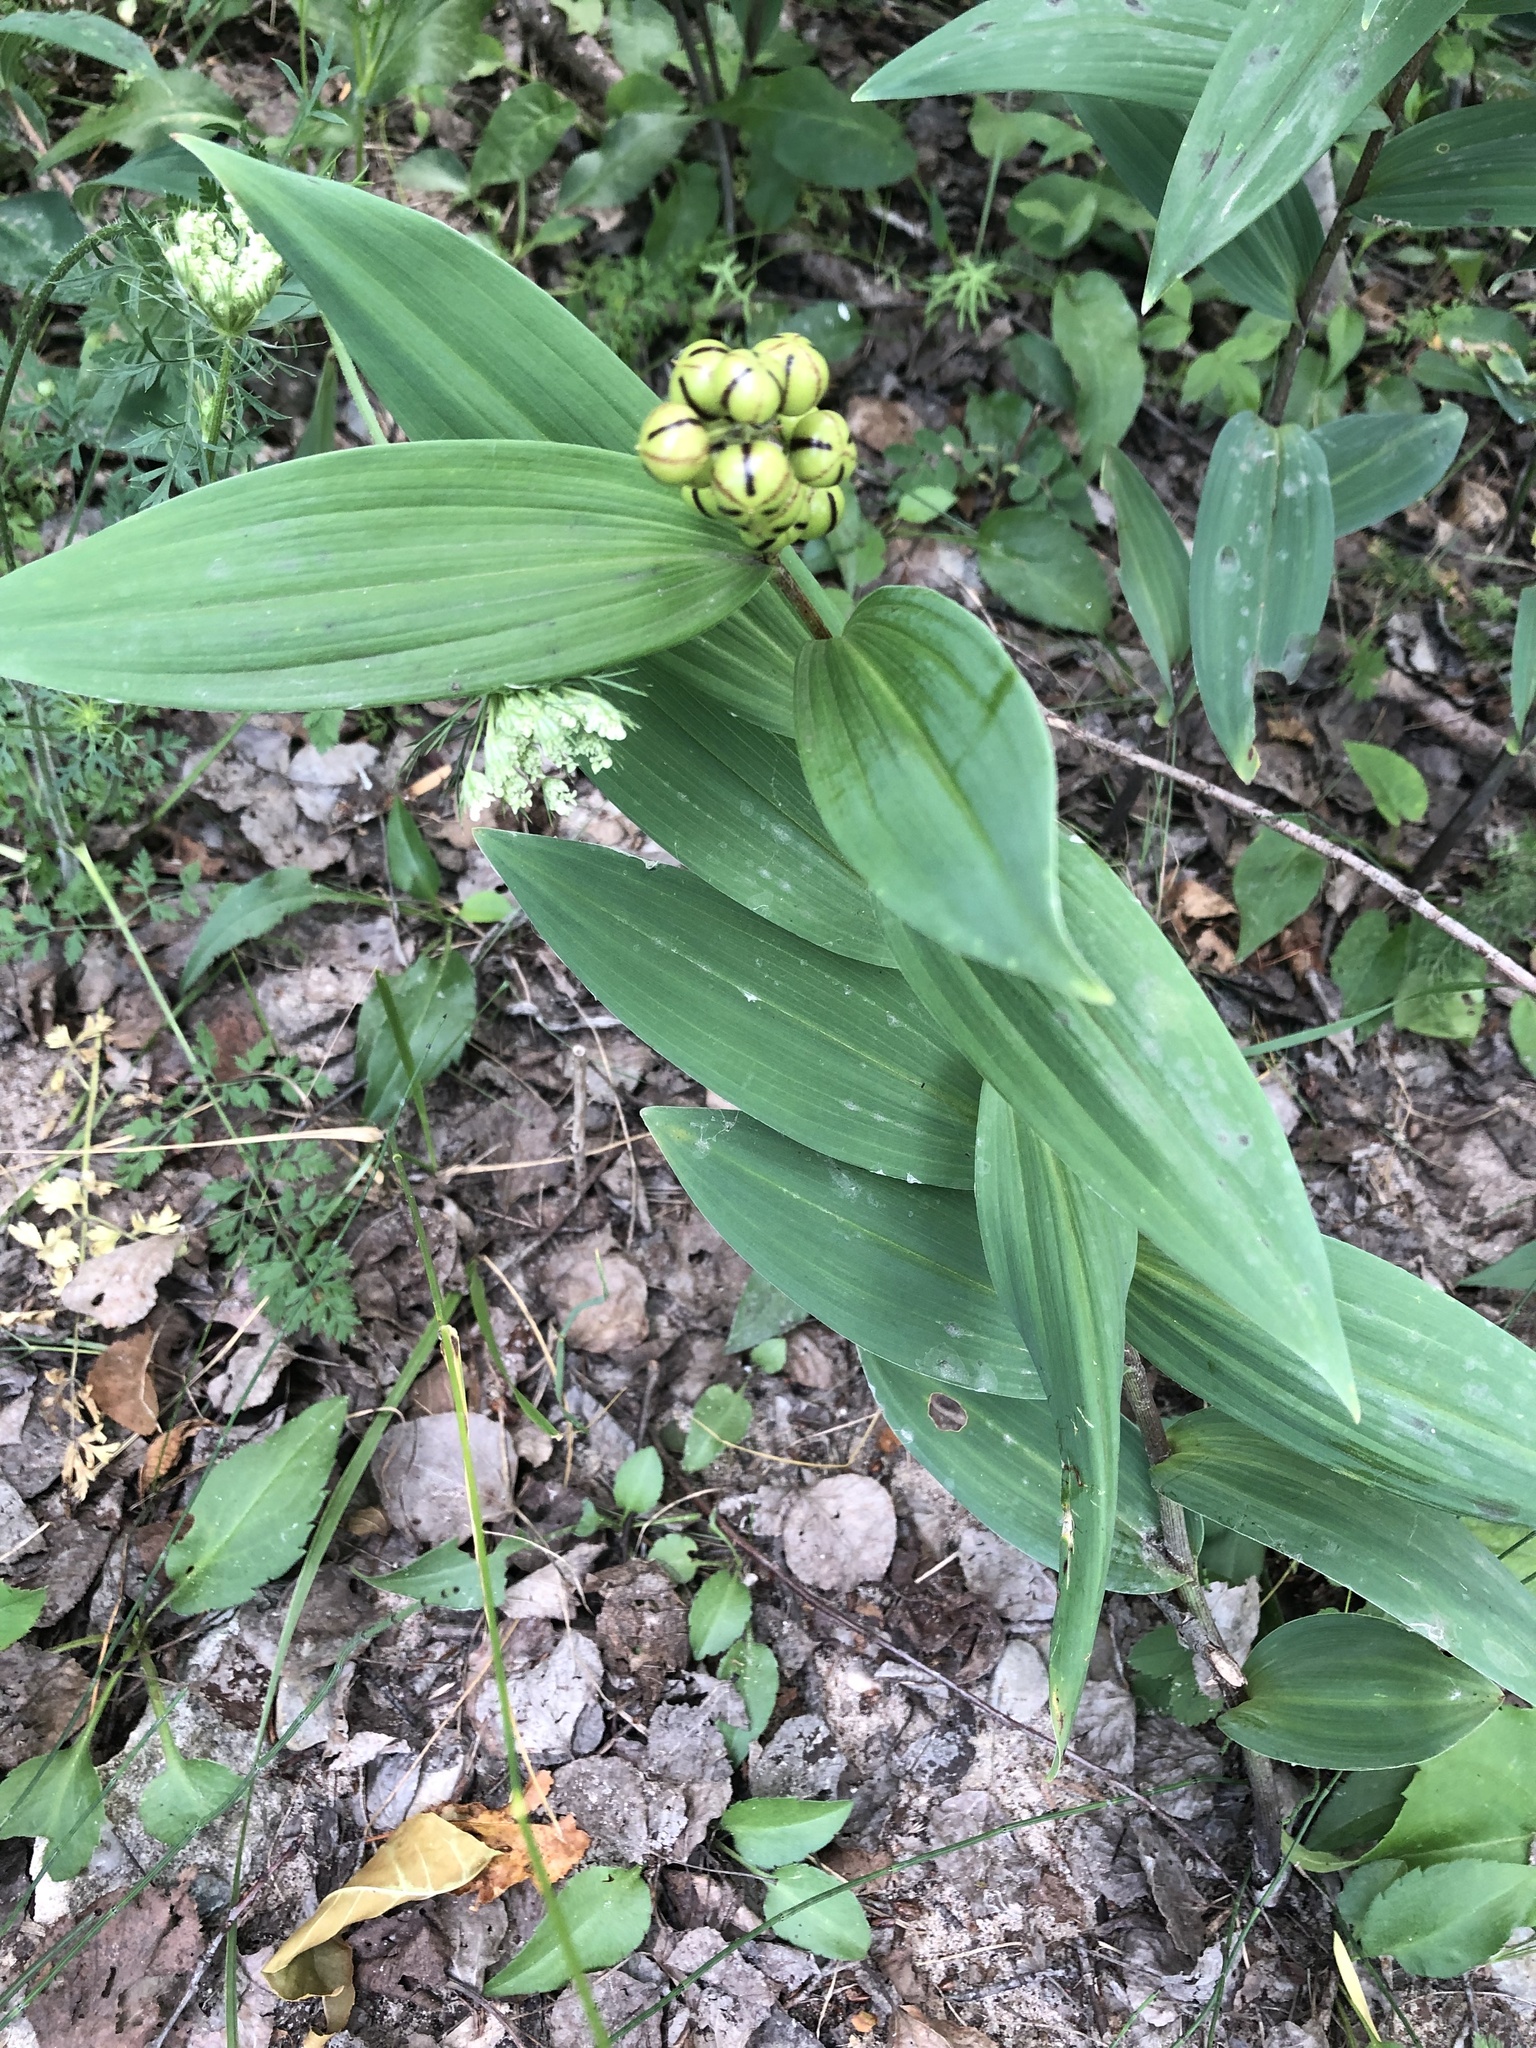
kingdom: Plantae
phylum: Tracheophyta
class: Liliopsida
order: Asparagales
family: Asparagaceae
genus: Maianthemum
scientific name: Maianthemum stellatum
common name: Little false solomon's seal
